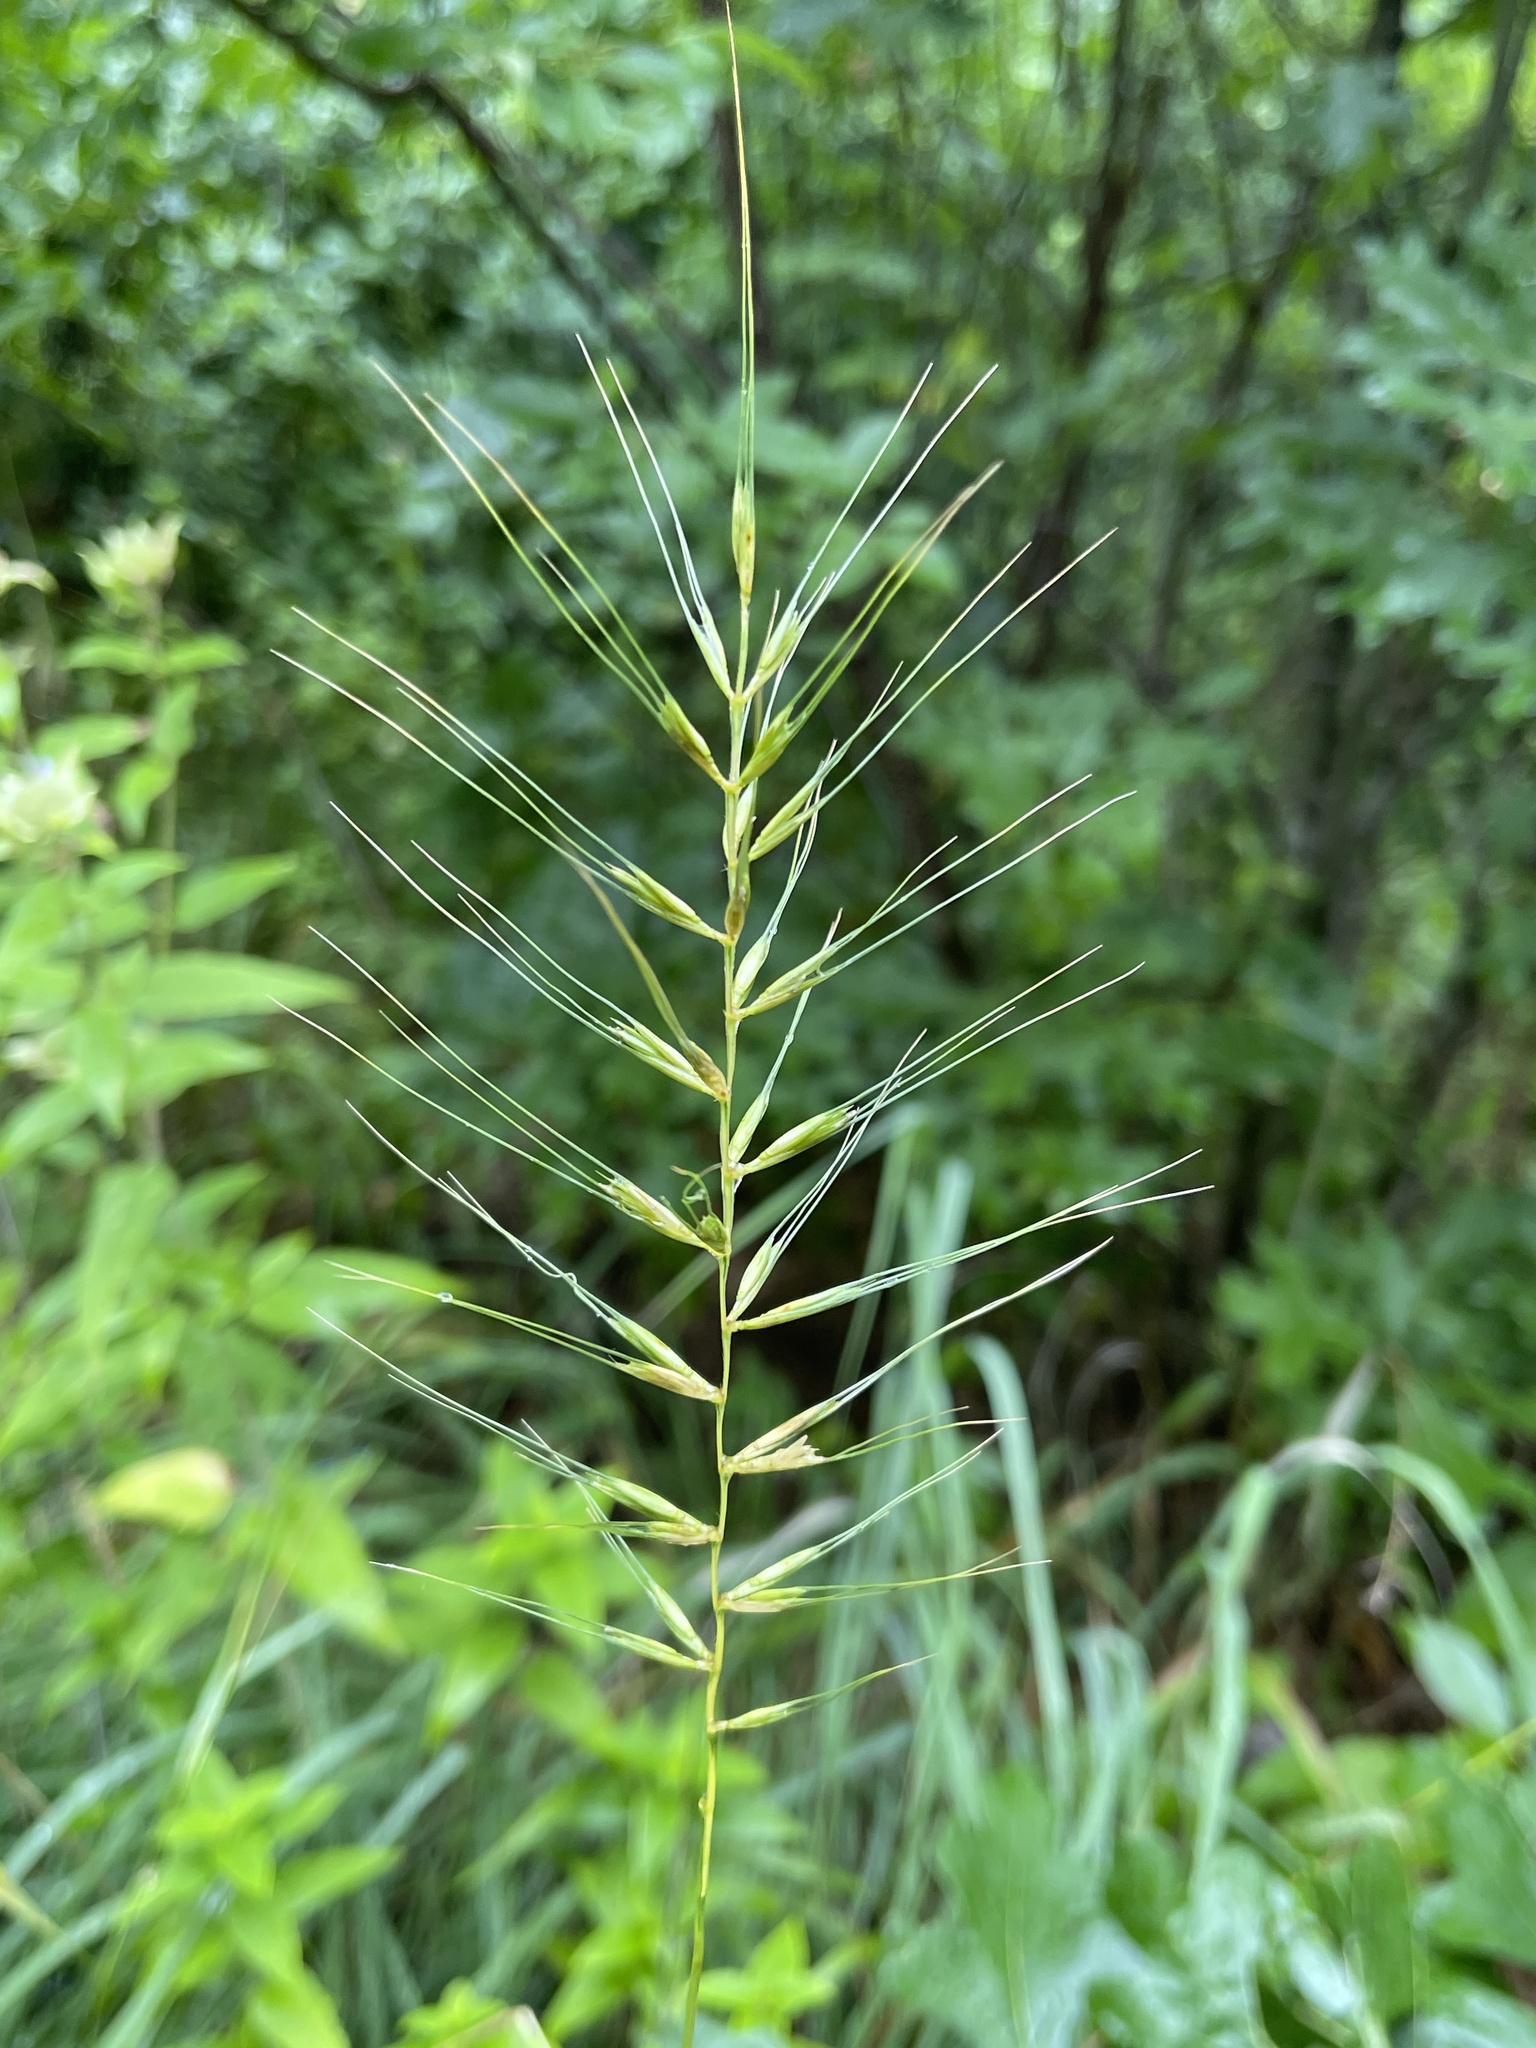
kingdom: Plantae
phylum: Tracheophyta
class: Liliopsida
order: Poales
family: Poaceae
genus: Elymus
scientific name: Elymus hystrix
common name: Bottlebrush grass
